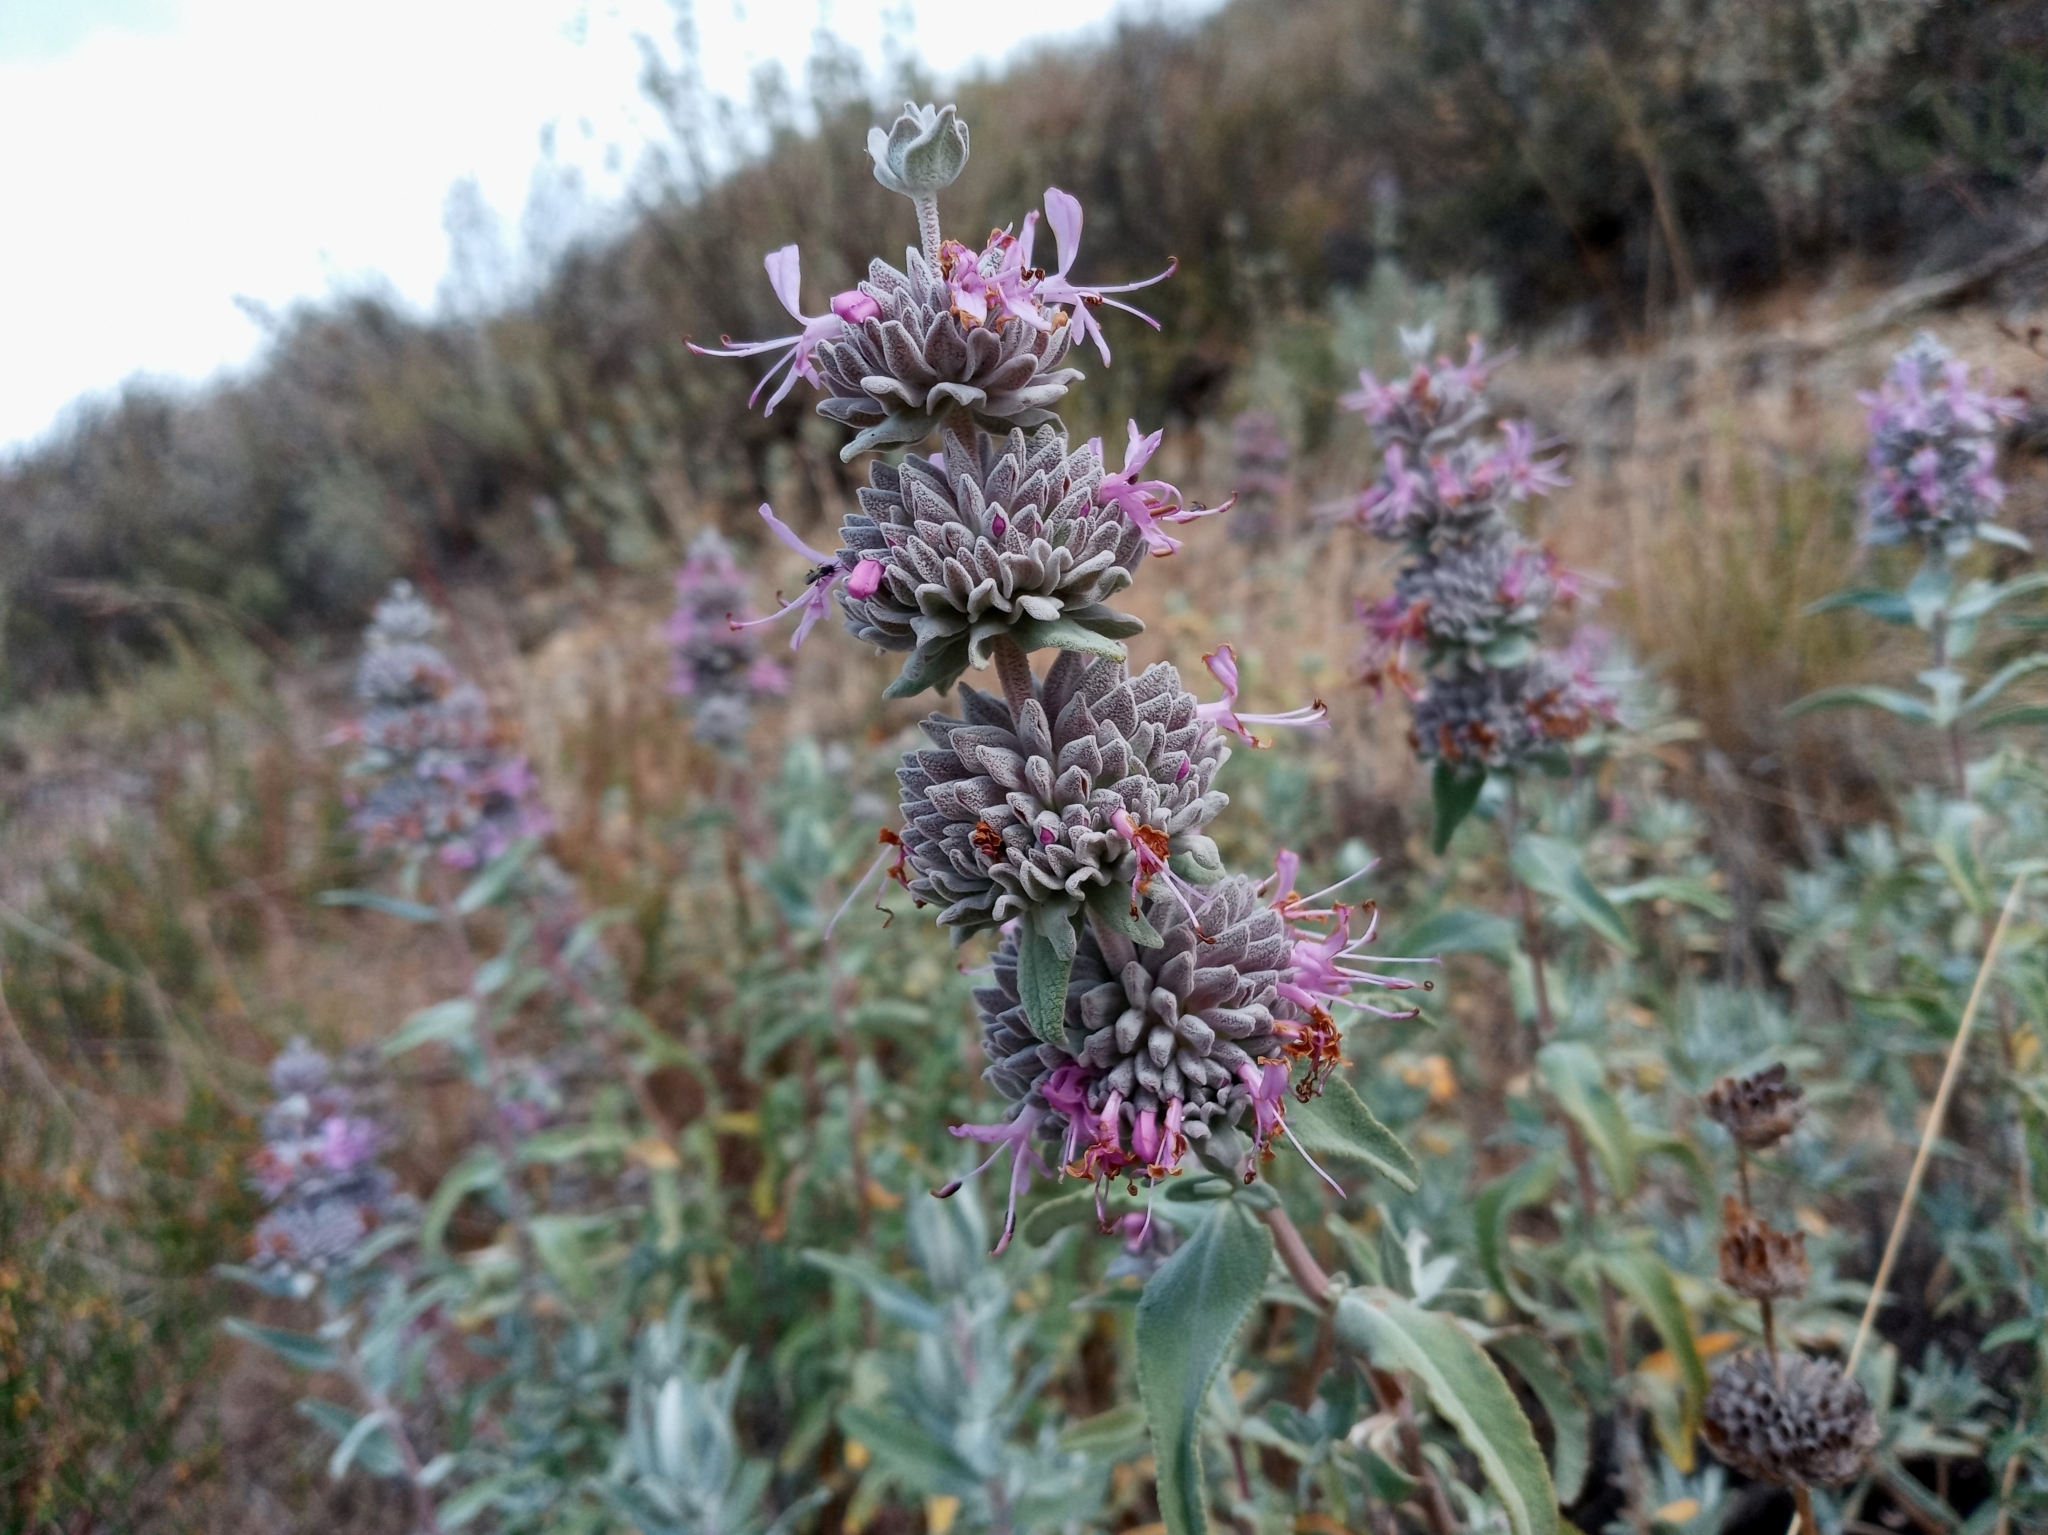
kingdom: Plantae
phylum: Tracheophyta
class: Magnoliopsida
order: Lamiales
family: Lamiaceae
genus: Salvia
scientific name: Salvia leucophylla
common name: Purple sage
